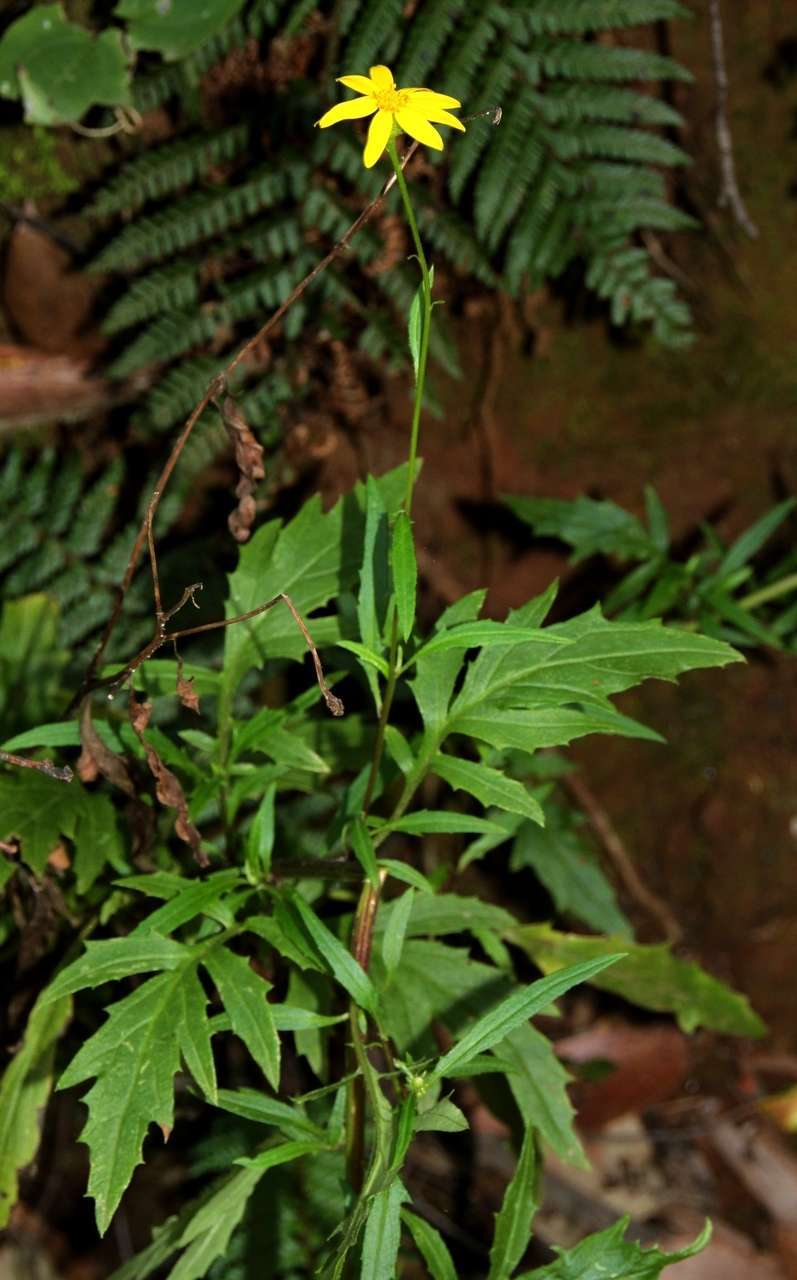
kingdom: Plantae
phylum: Tracheophyta
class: Magnoliopsida
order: Asterales
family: Asteraceae
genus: Senecio
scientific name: Senecio vagus
